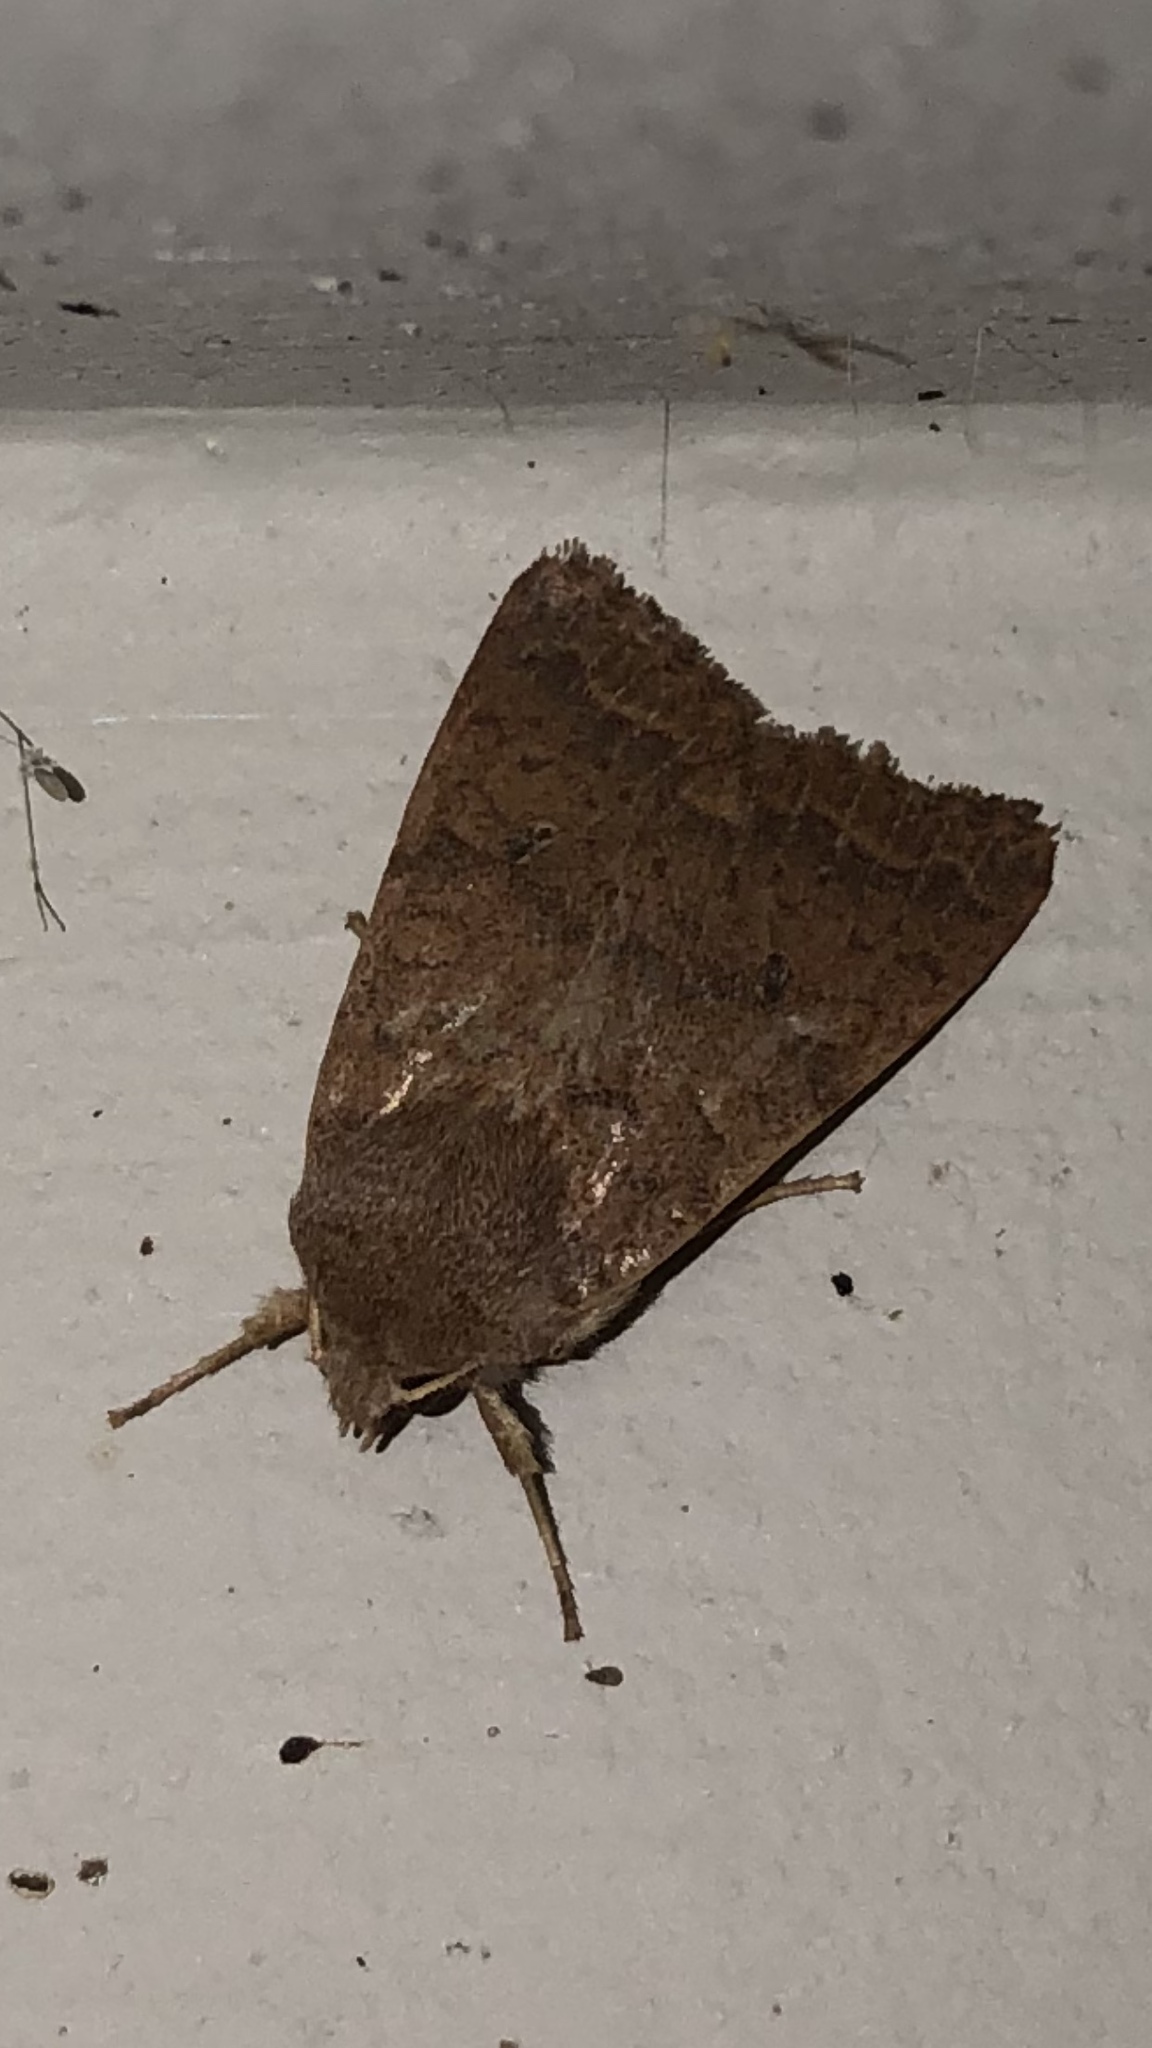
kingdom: Animalia
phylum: Arthropoda
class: Insecta
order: Lepidoptera
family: Noctuidae
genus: Sericaglaea
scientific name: Sericaglaea signata
